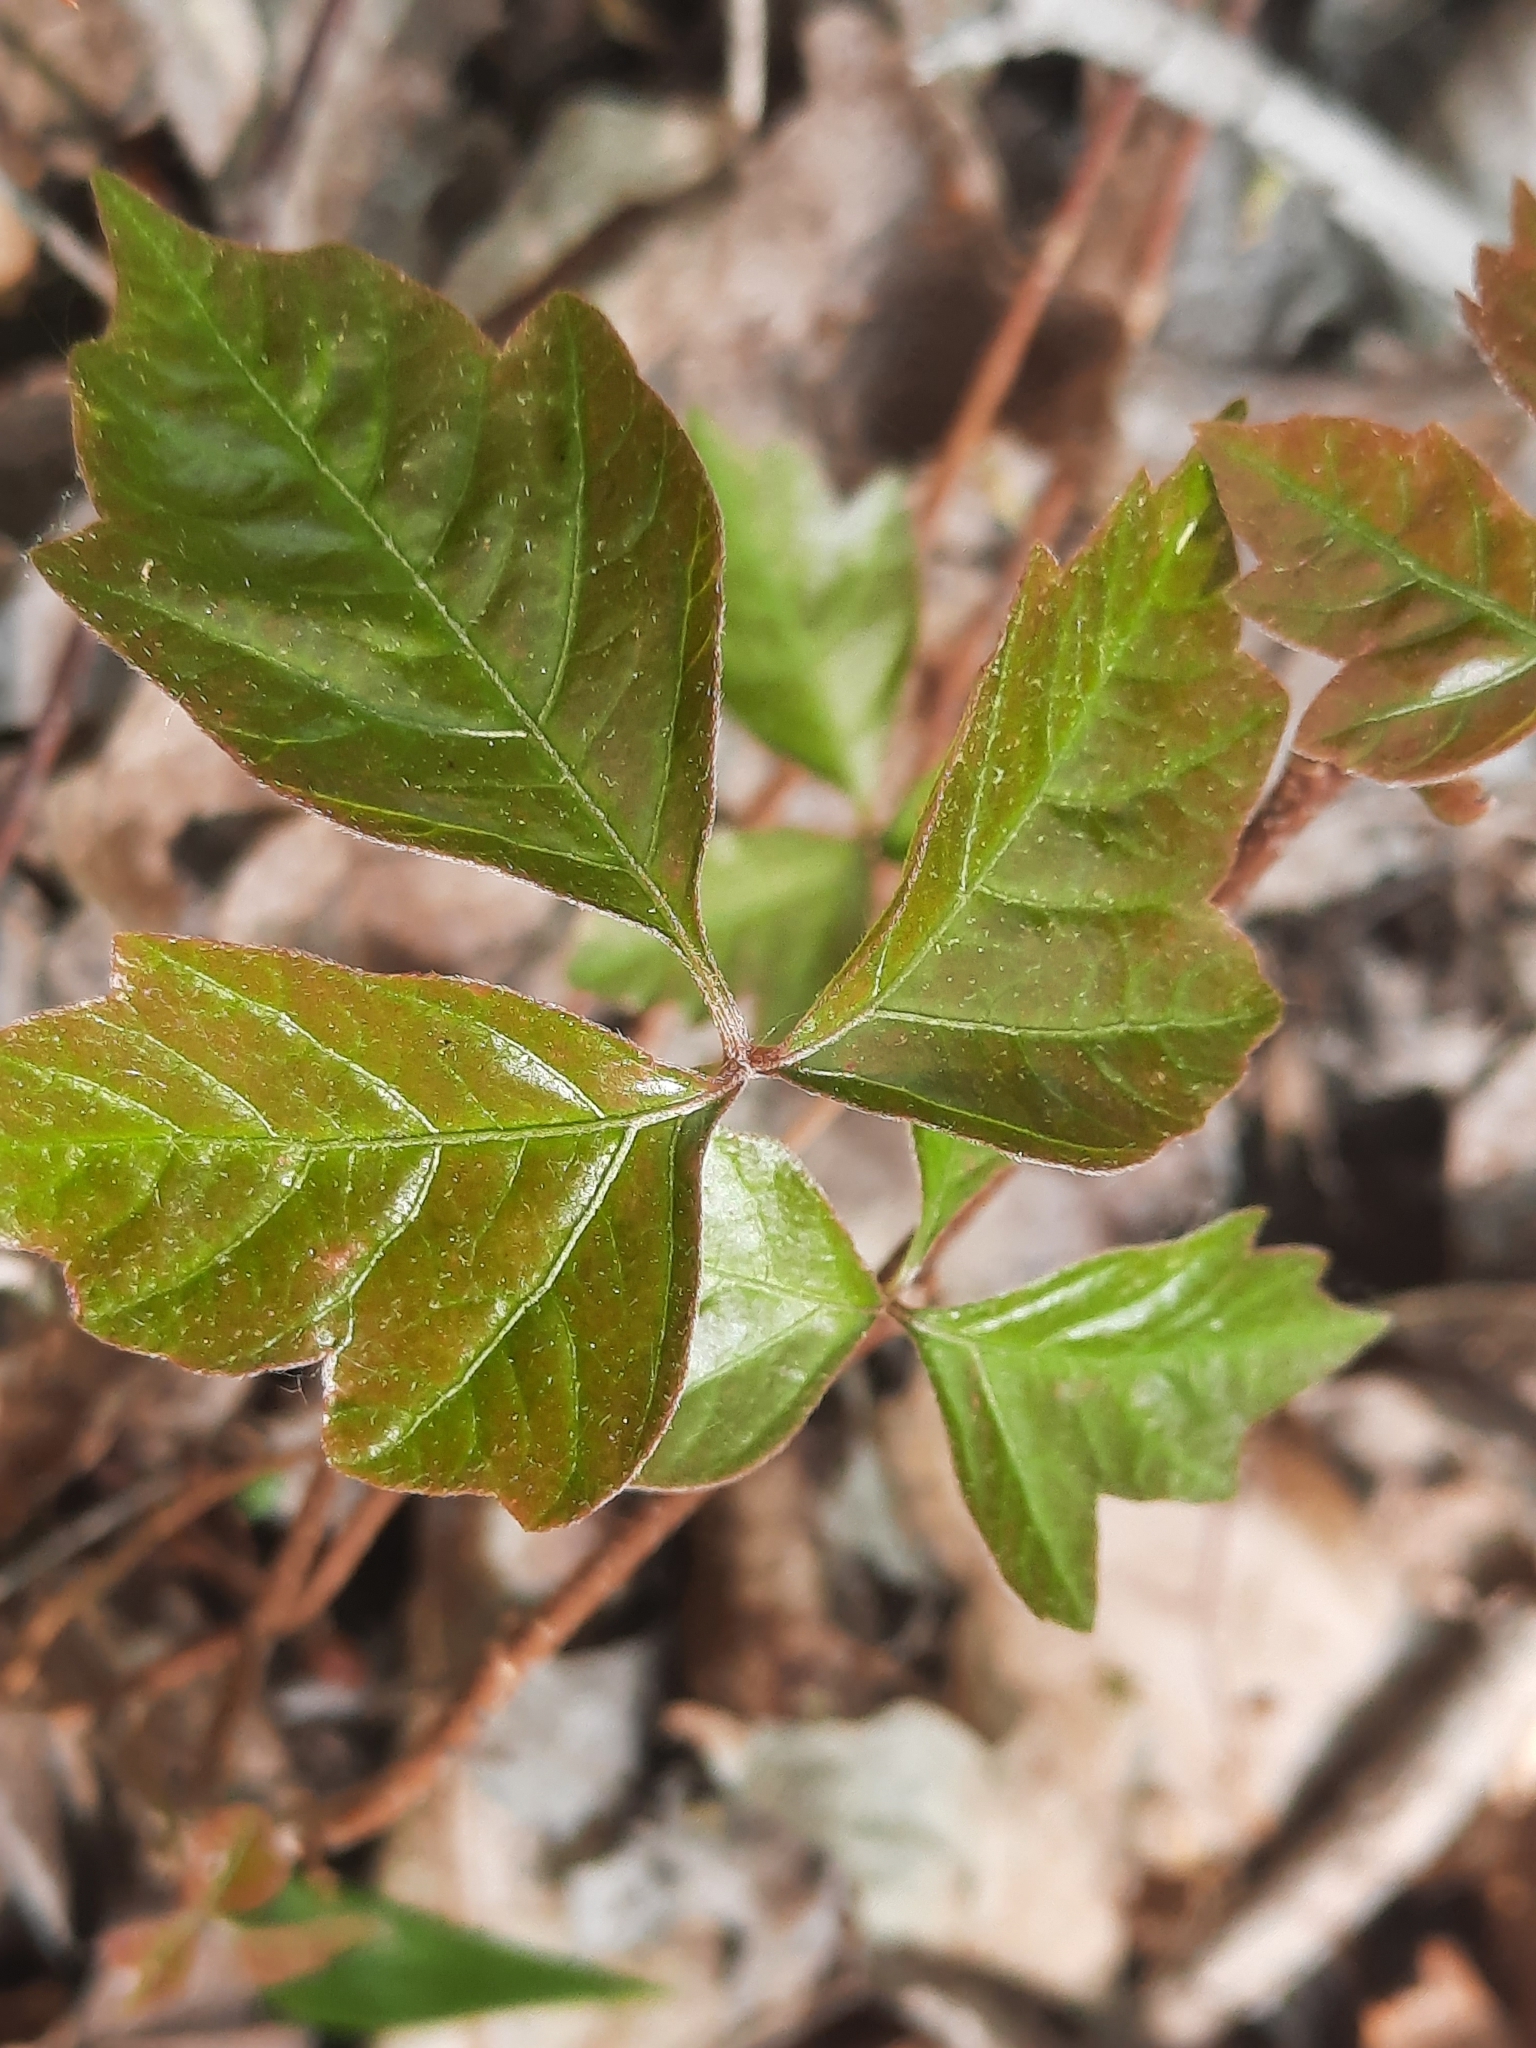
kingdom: Plantae
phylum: Tracheophyta
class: Magnoliopsida
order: Sapindales
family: Anacardiaceae
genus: Toxicodendron
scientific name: Toxicodendron radicans
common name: Poison ivy
